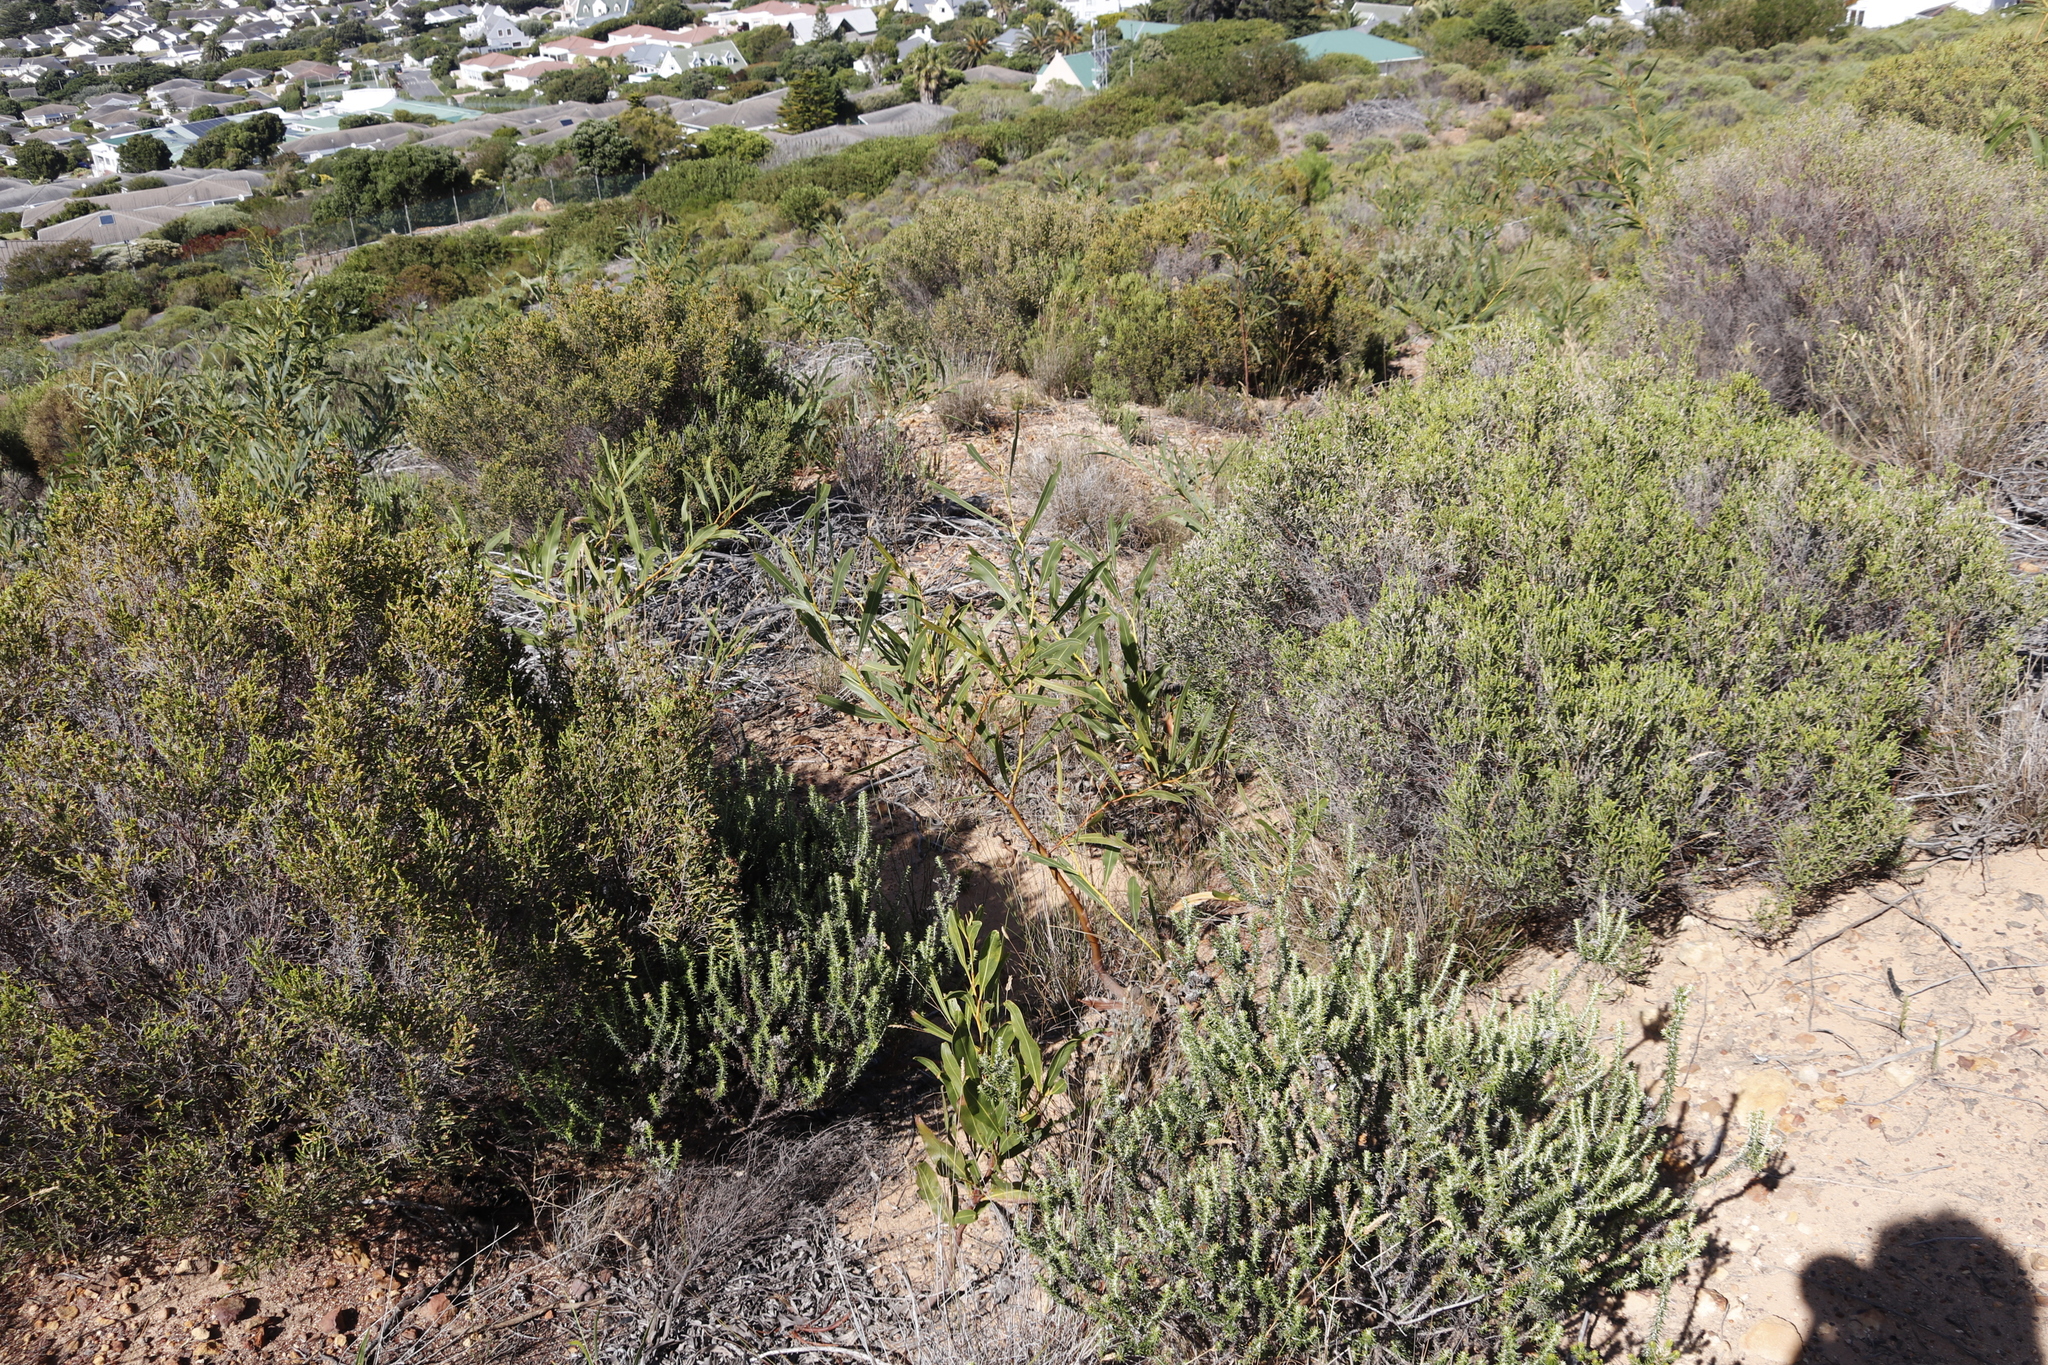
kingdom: Plantae
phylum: Tracheophyta
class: Magnoliopsida
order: Fabales
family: Fabaceae
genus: Acacia
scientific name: Acacia saligna
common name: Orange wattle
